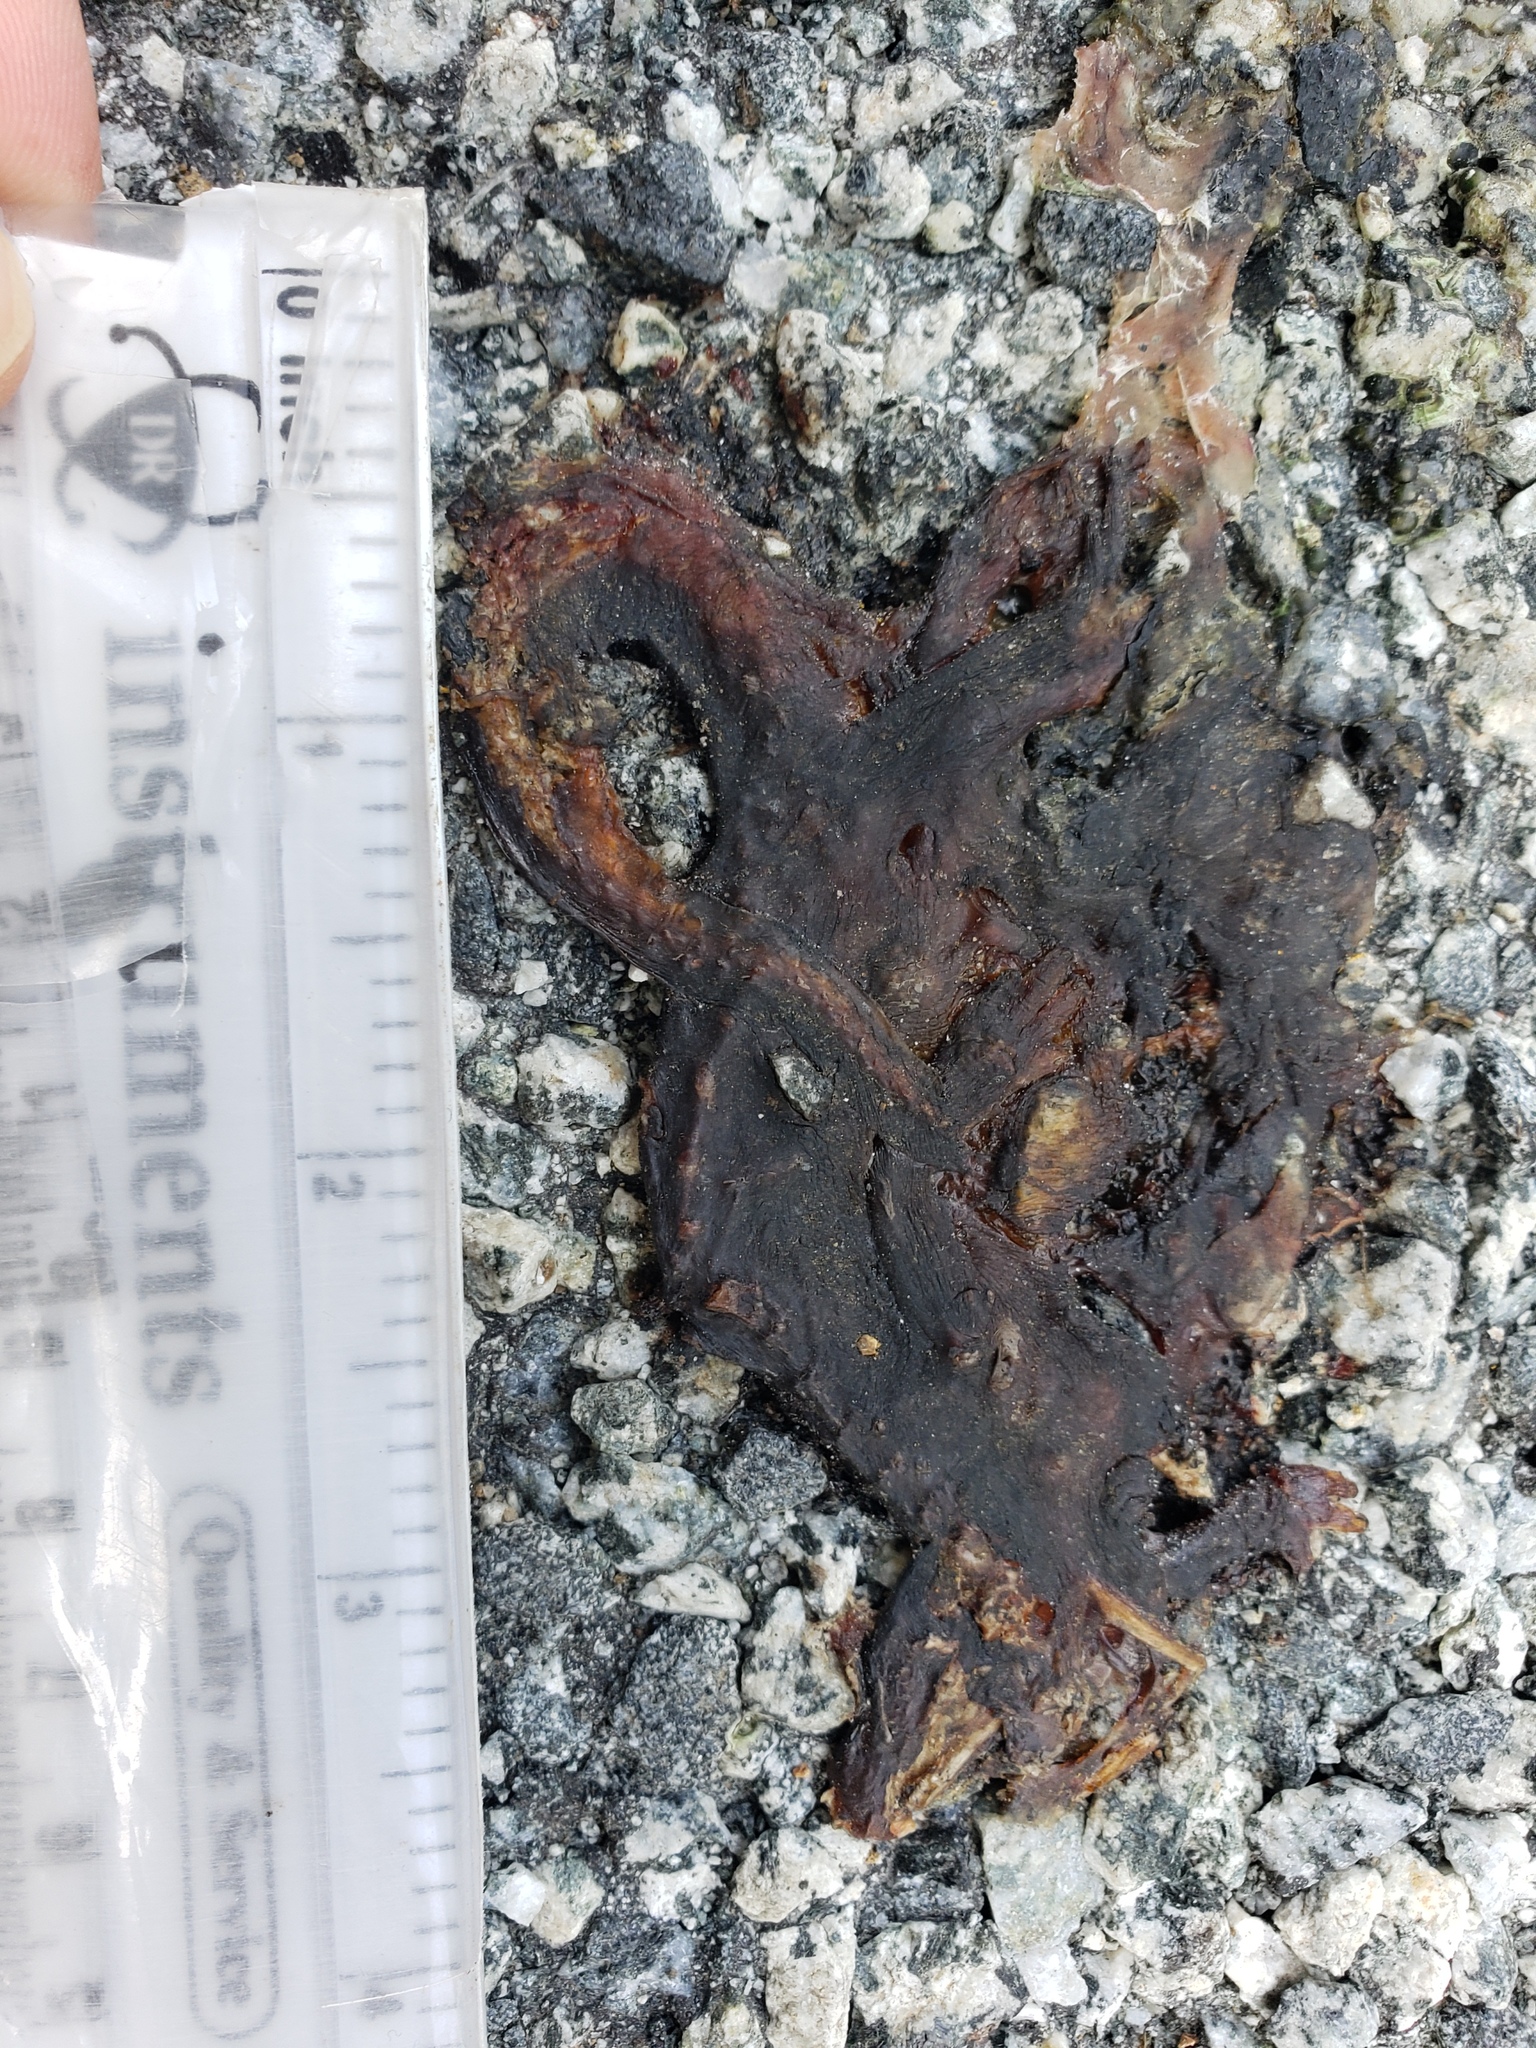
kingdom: Animalia
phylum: Chordata
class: Amphibia
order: Caudata
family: Salamandridae
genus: Taricha
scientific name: Taricha
